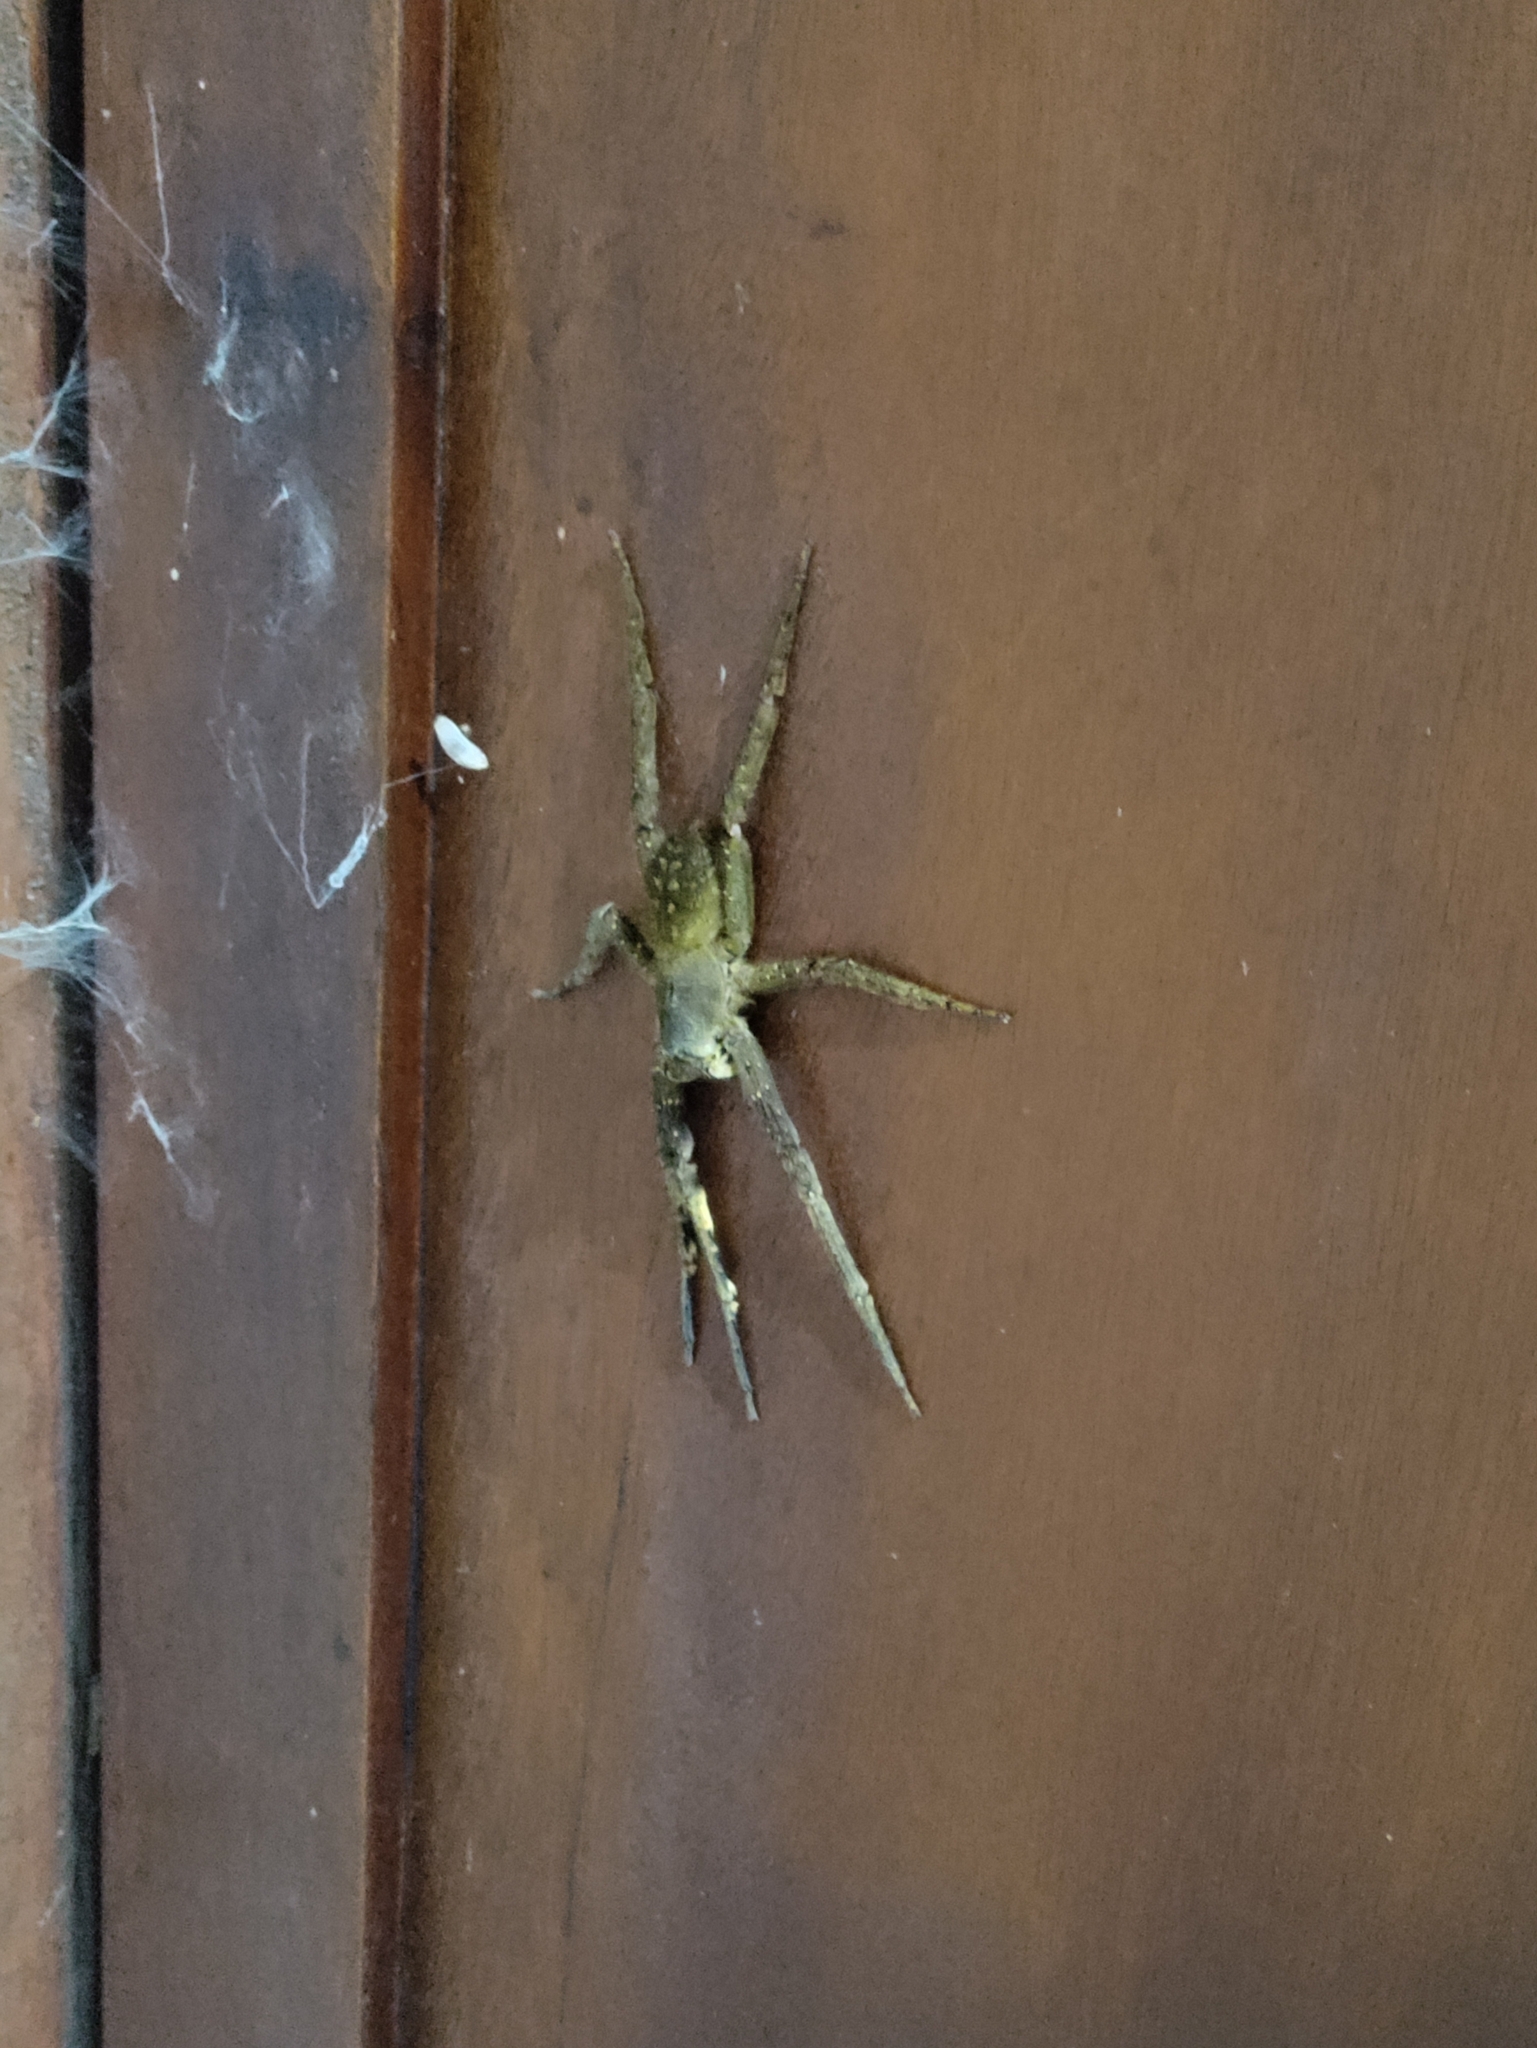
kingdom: Animalia
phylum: Arthropoda
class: Arachnida
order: Araneae
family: Ctenidae
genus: Phoneutria
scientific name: Phoneutria fera
